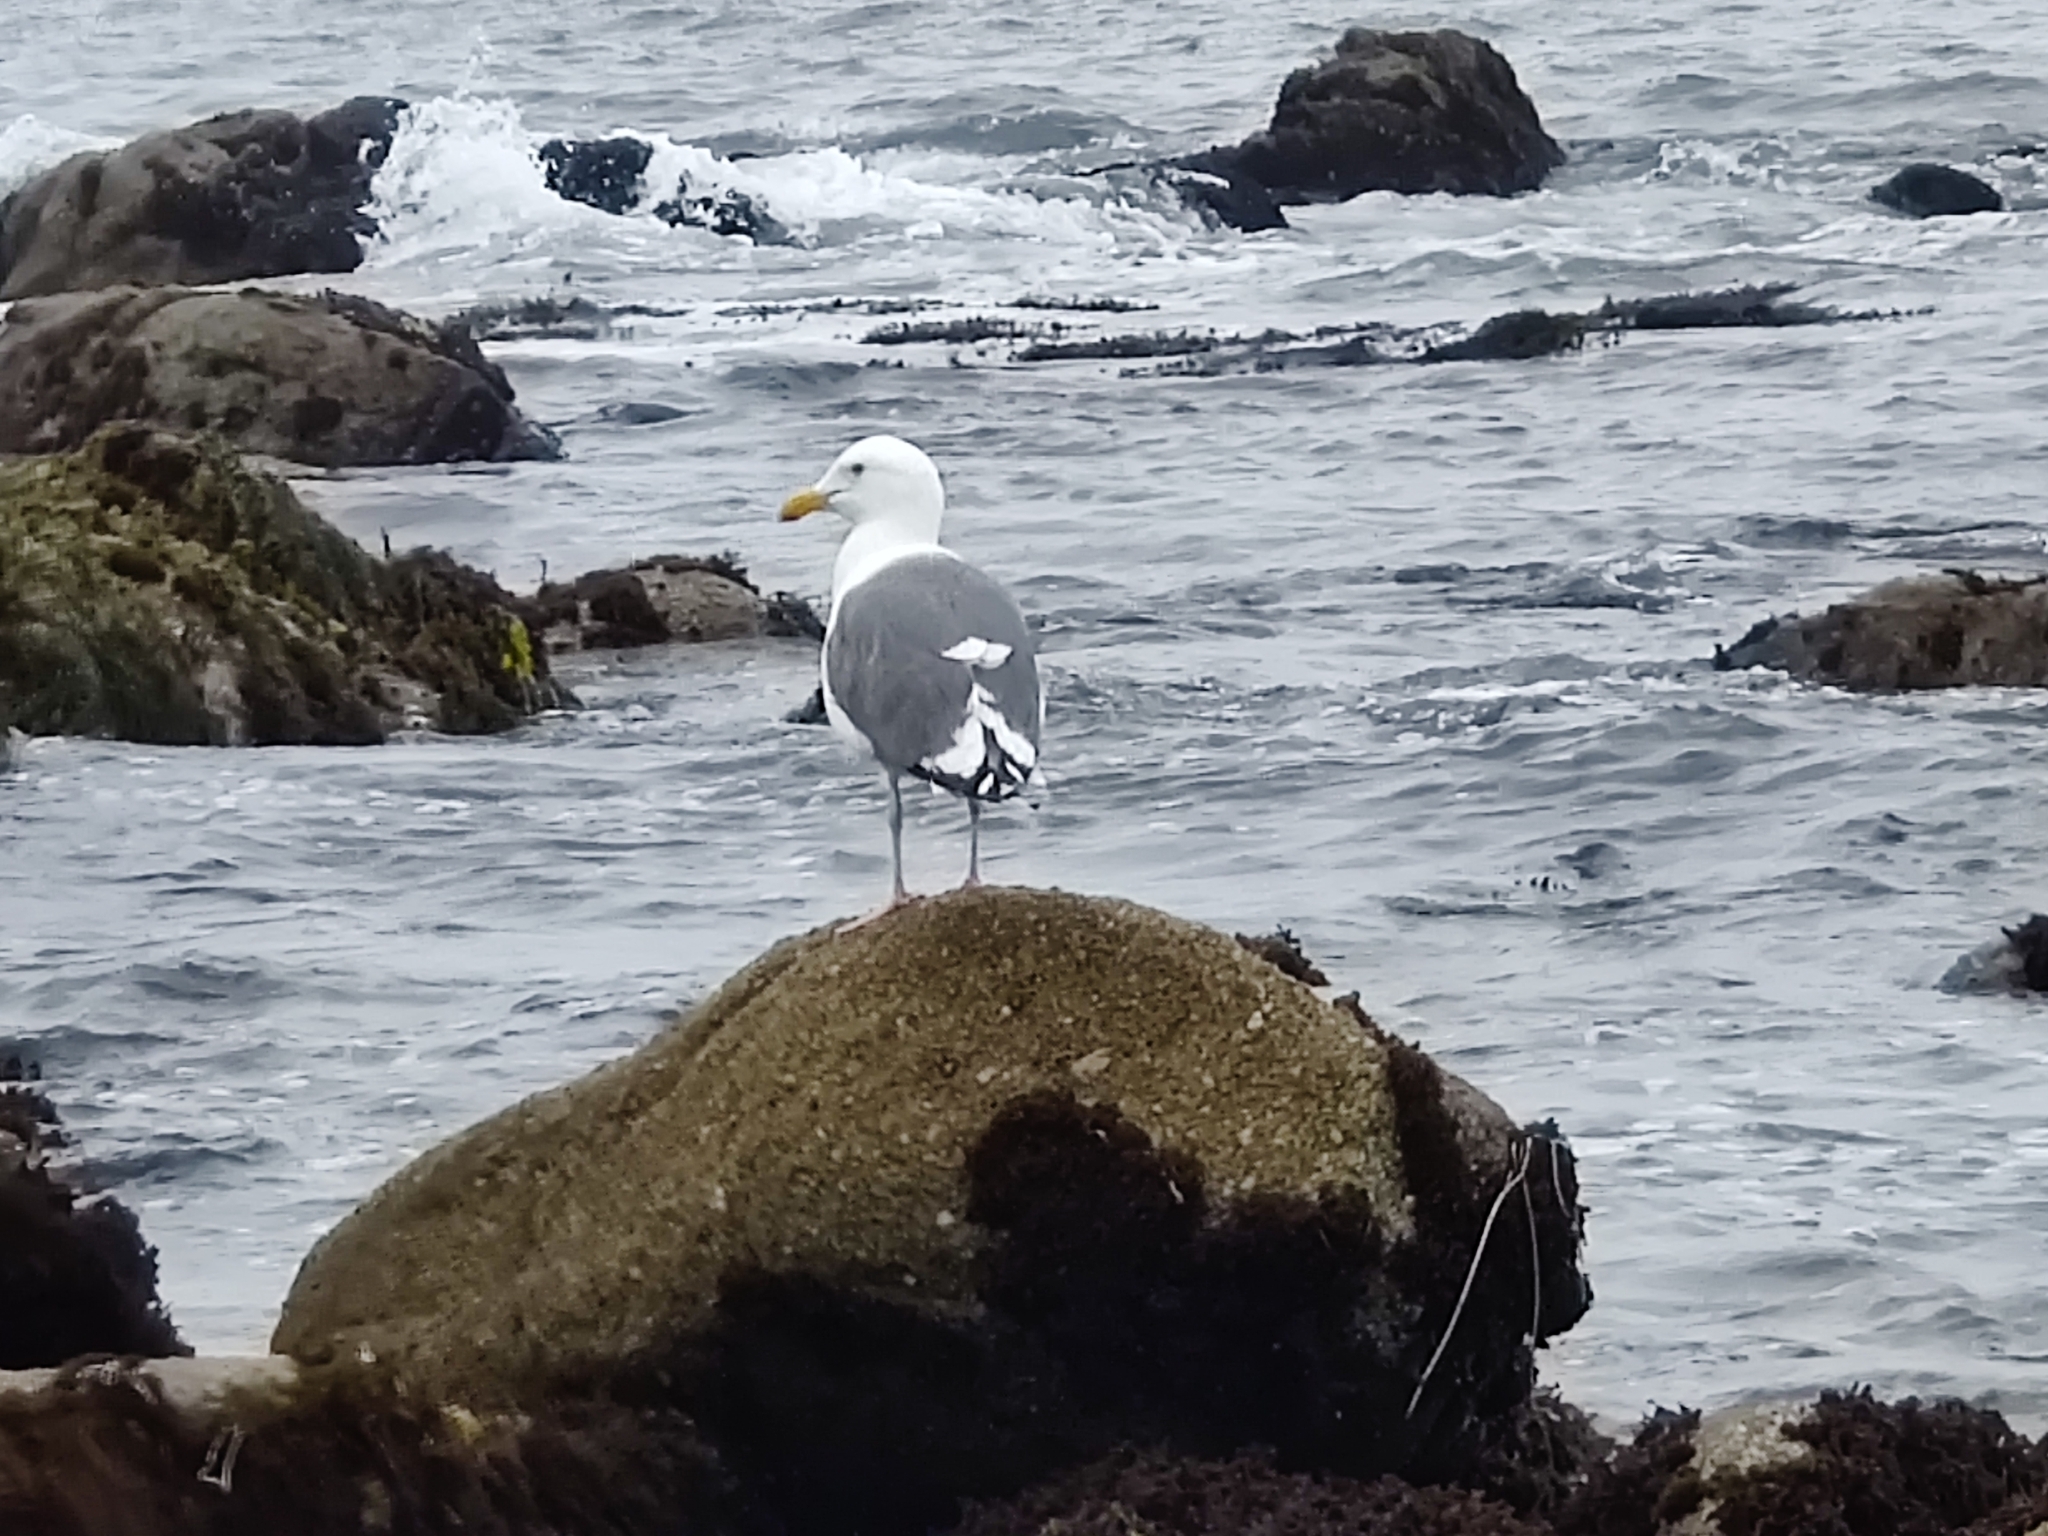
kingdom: Animalia
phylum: Chordata
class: Aves
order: Charadriiformes
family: Laridae
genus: Larus
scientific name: Larus occidentalis
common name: Western gull
